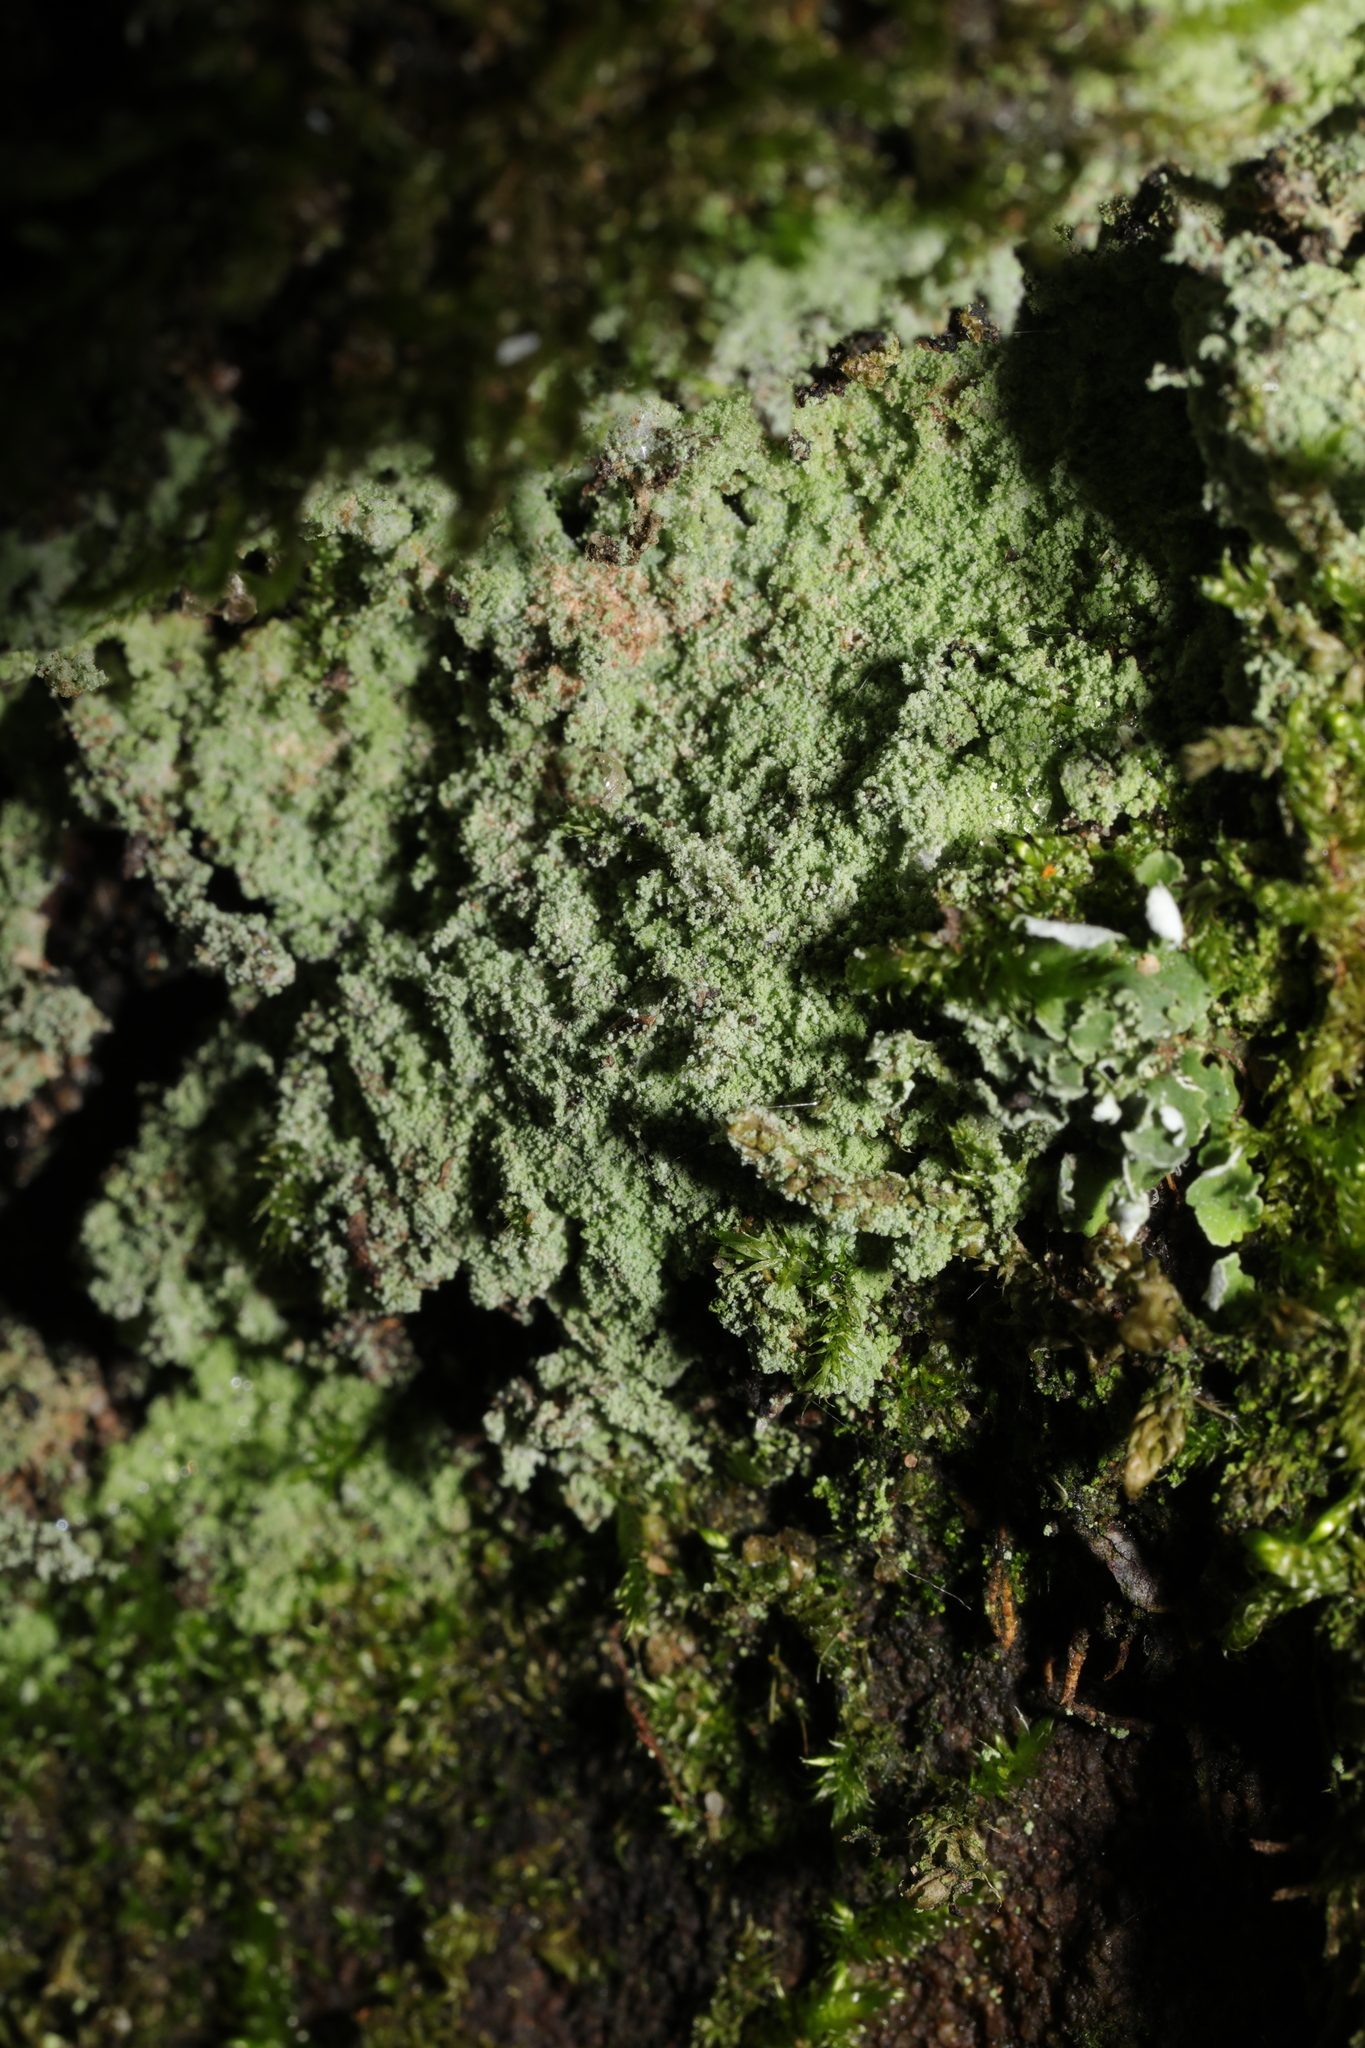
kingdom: Fungi
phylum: Ascomycota
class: Lecanoromycetes
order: Lecanorales
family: Stereocaulaceae
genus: Lepraria
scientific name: Lepraria
